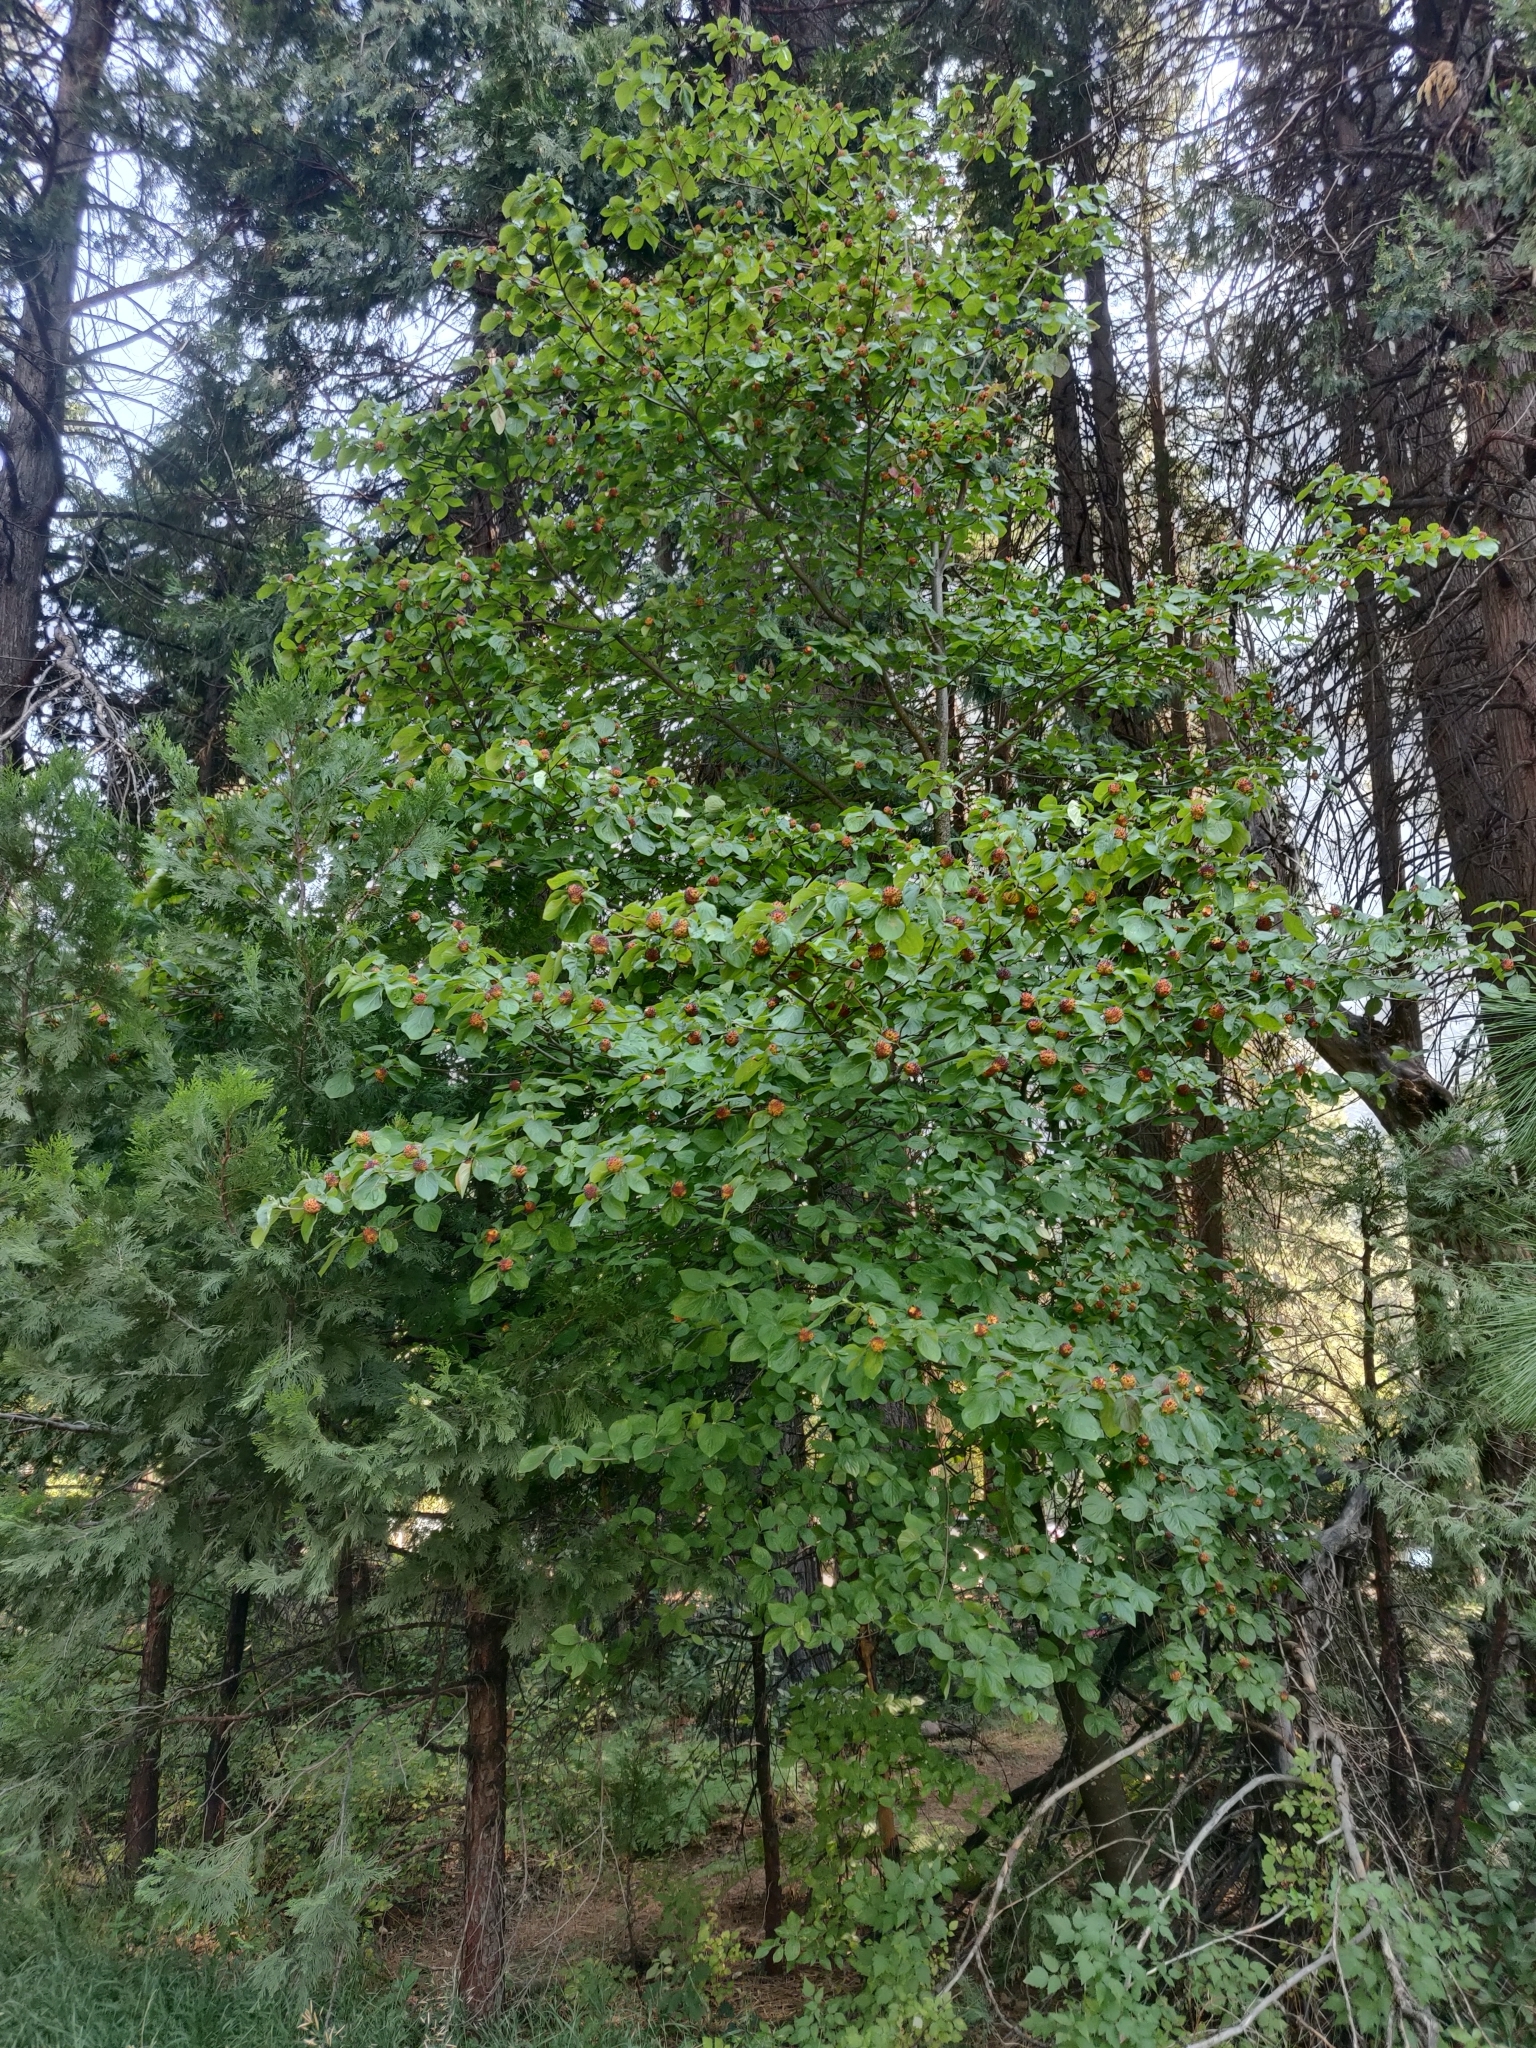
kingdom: Plantae
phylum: Tracheophyta
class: Magnoliopsida
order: Cornales
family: Cornaceae
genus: Cornus
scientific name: Cornus nuttallii
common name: Pacific dogwood
